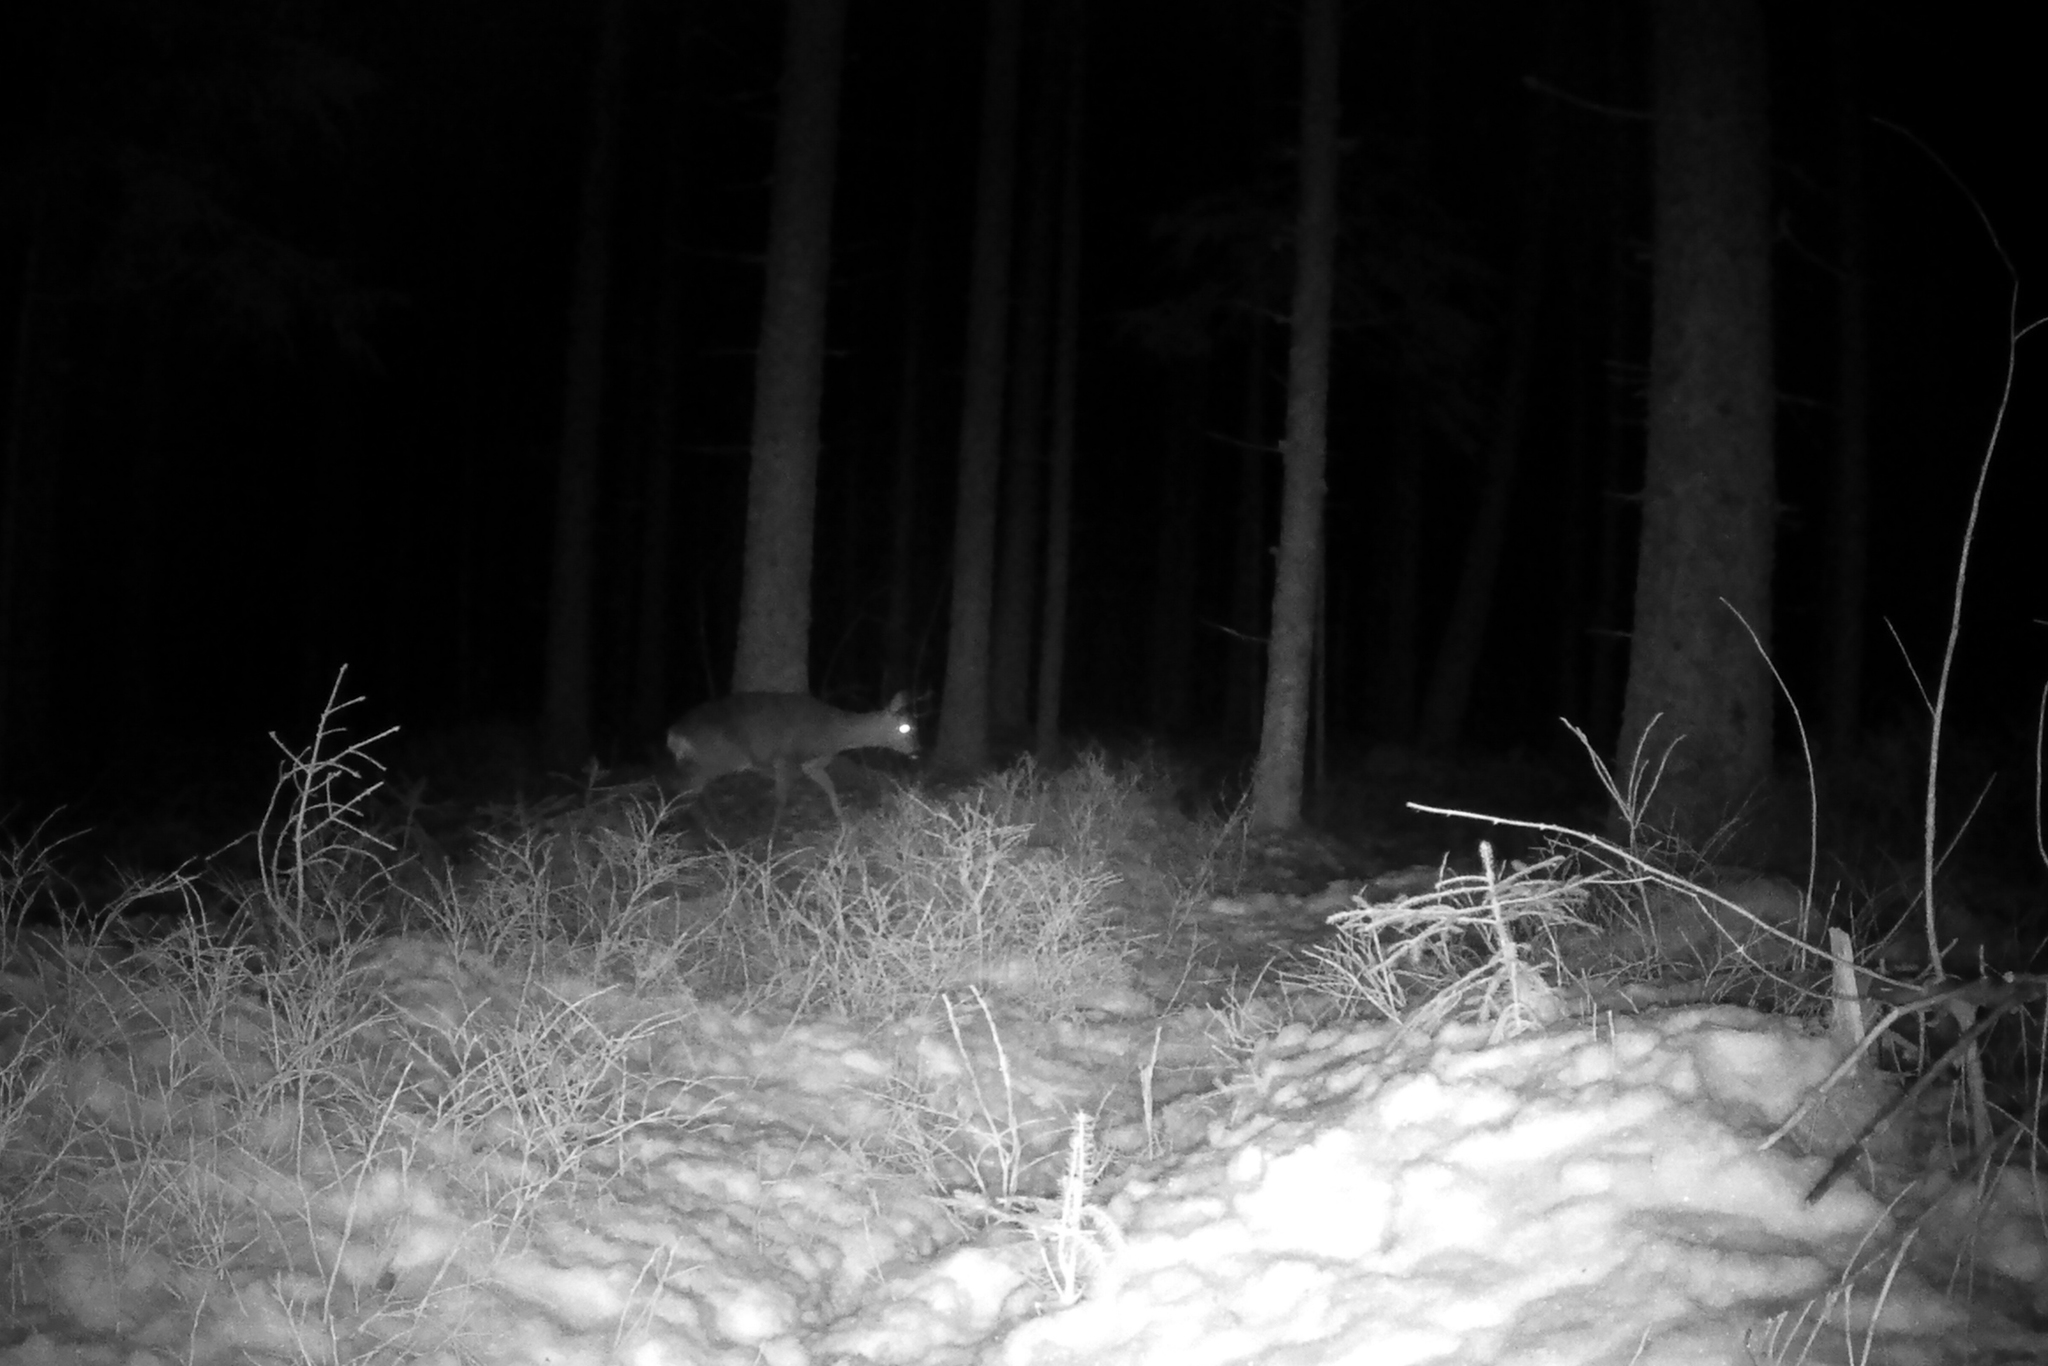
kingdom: Animalia
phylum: Chordata
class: Mammalia
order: Artiodactyla
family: Cervidae
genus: Capreolus
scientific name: Capreolus capreolus
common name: Western roe deer
